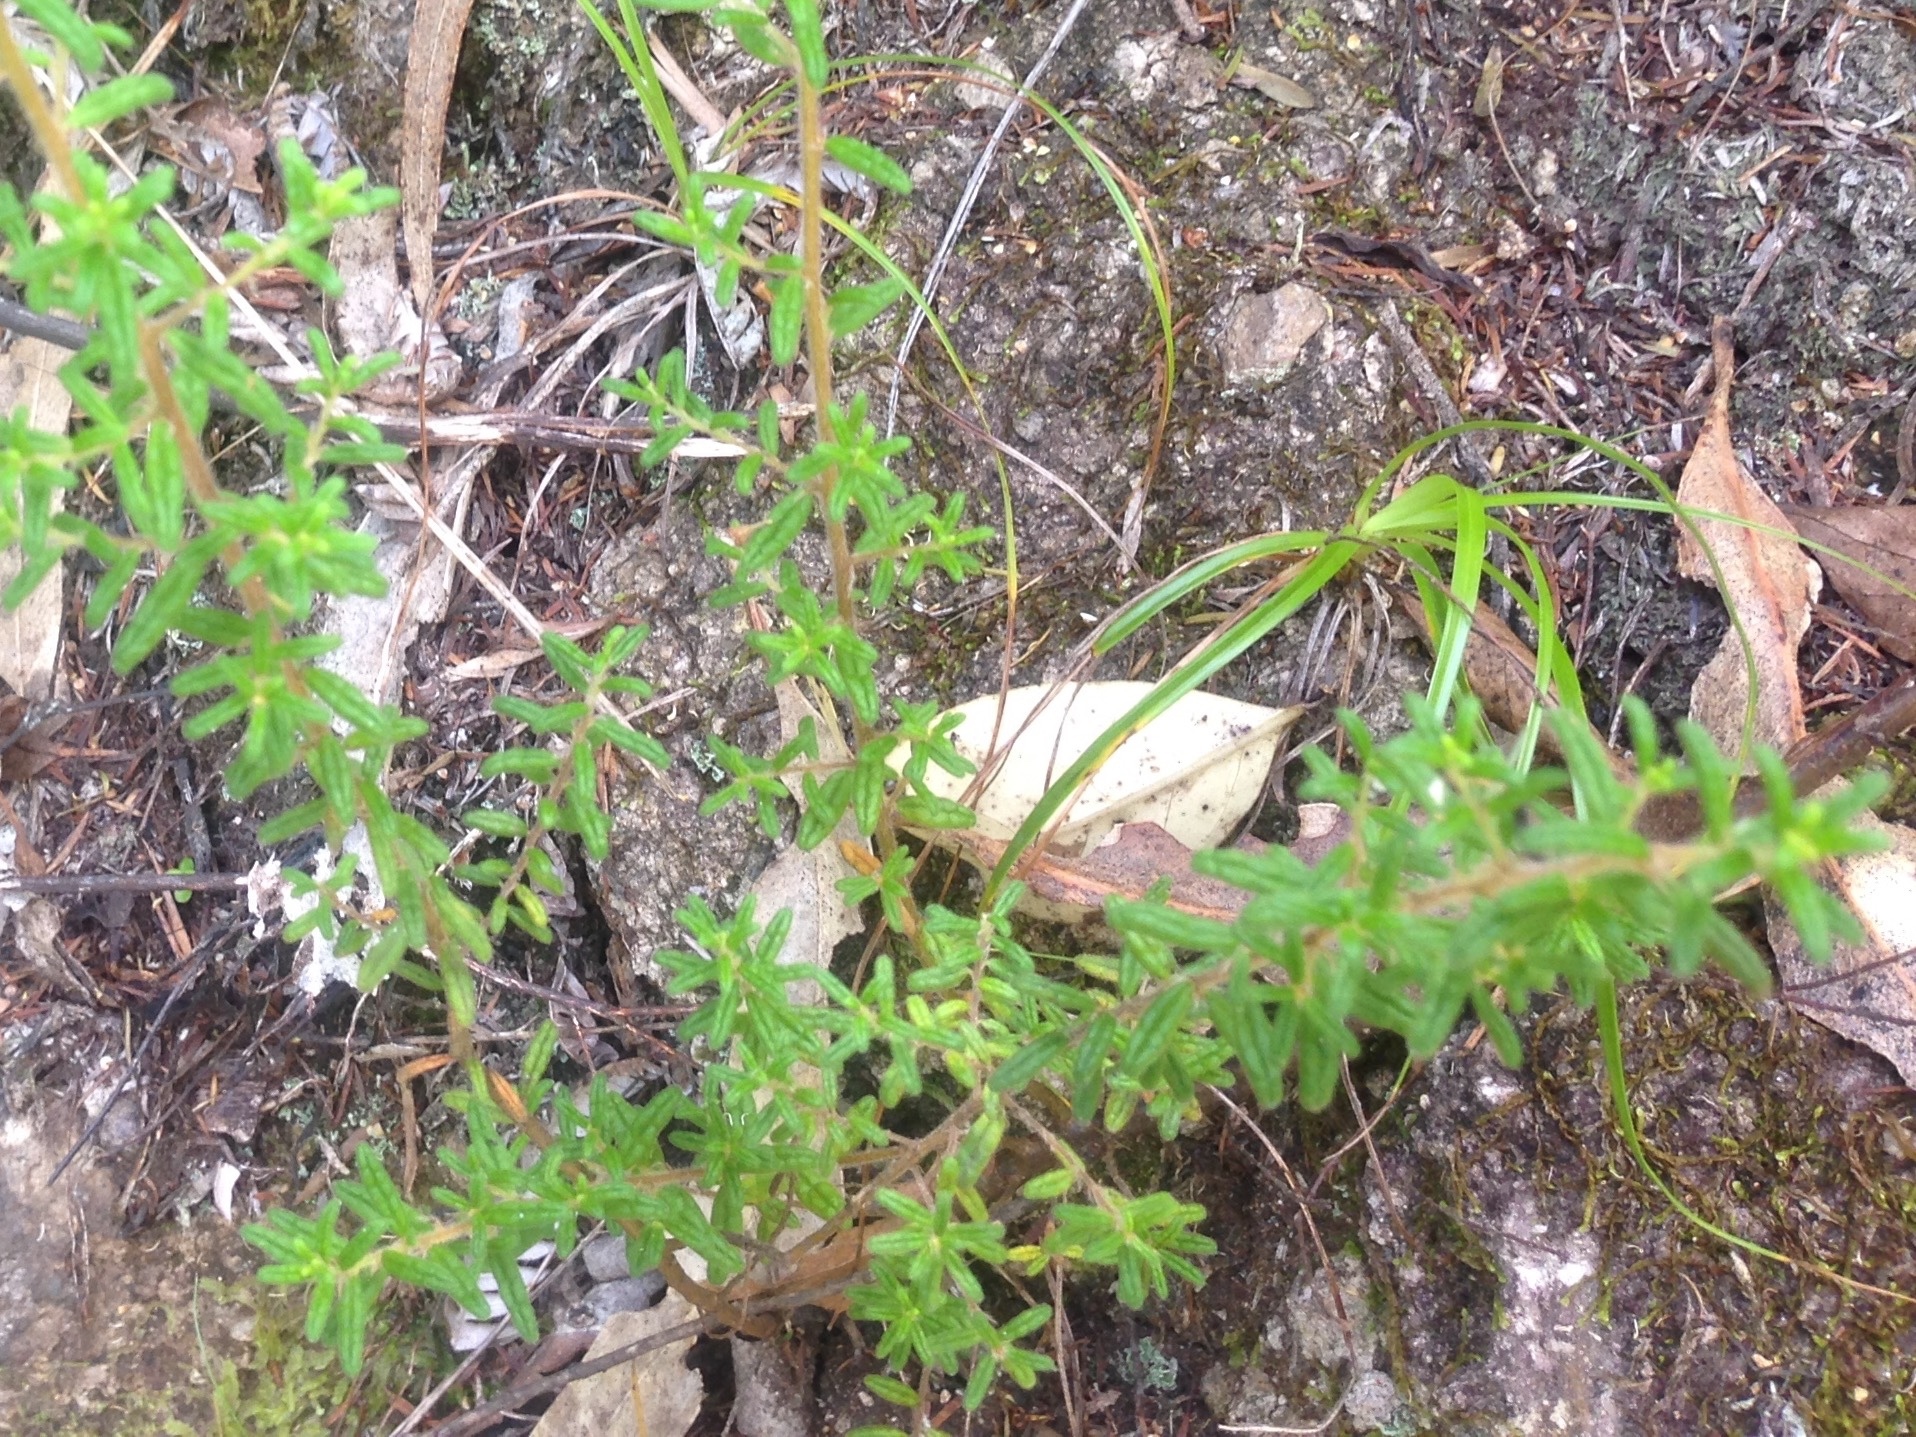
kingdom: Plantae
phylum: Tracheophyta
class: Magnoliopsida
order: Rosales
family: Rhamnaceae
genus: Pomaderris
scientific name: Pomaderris amoena
